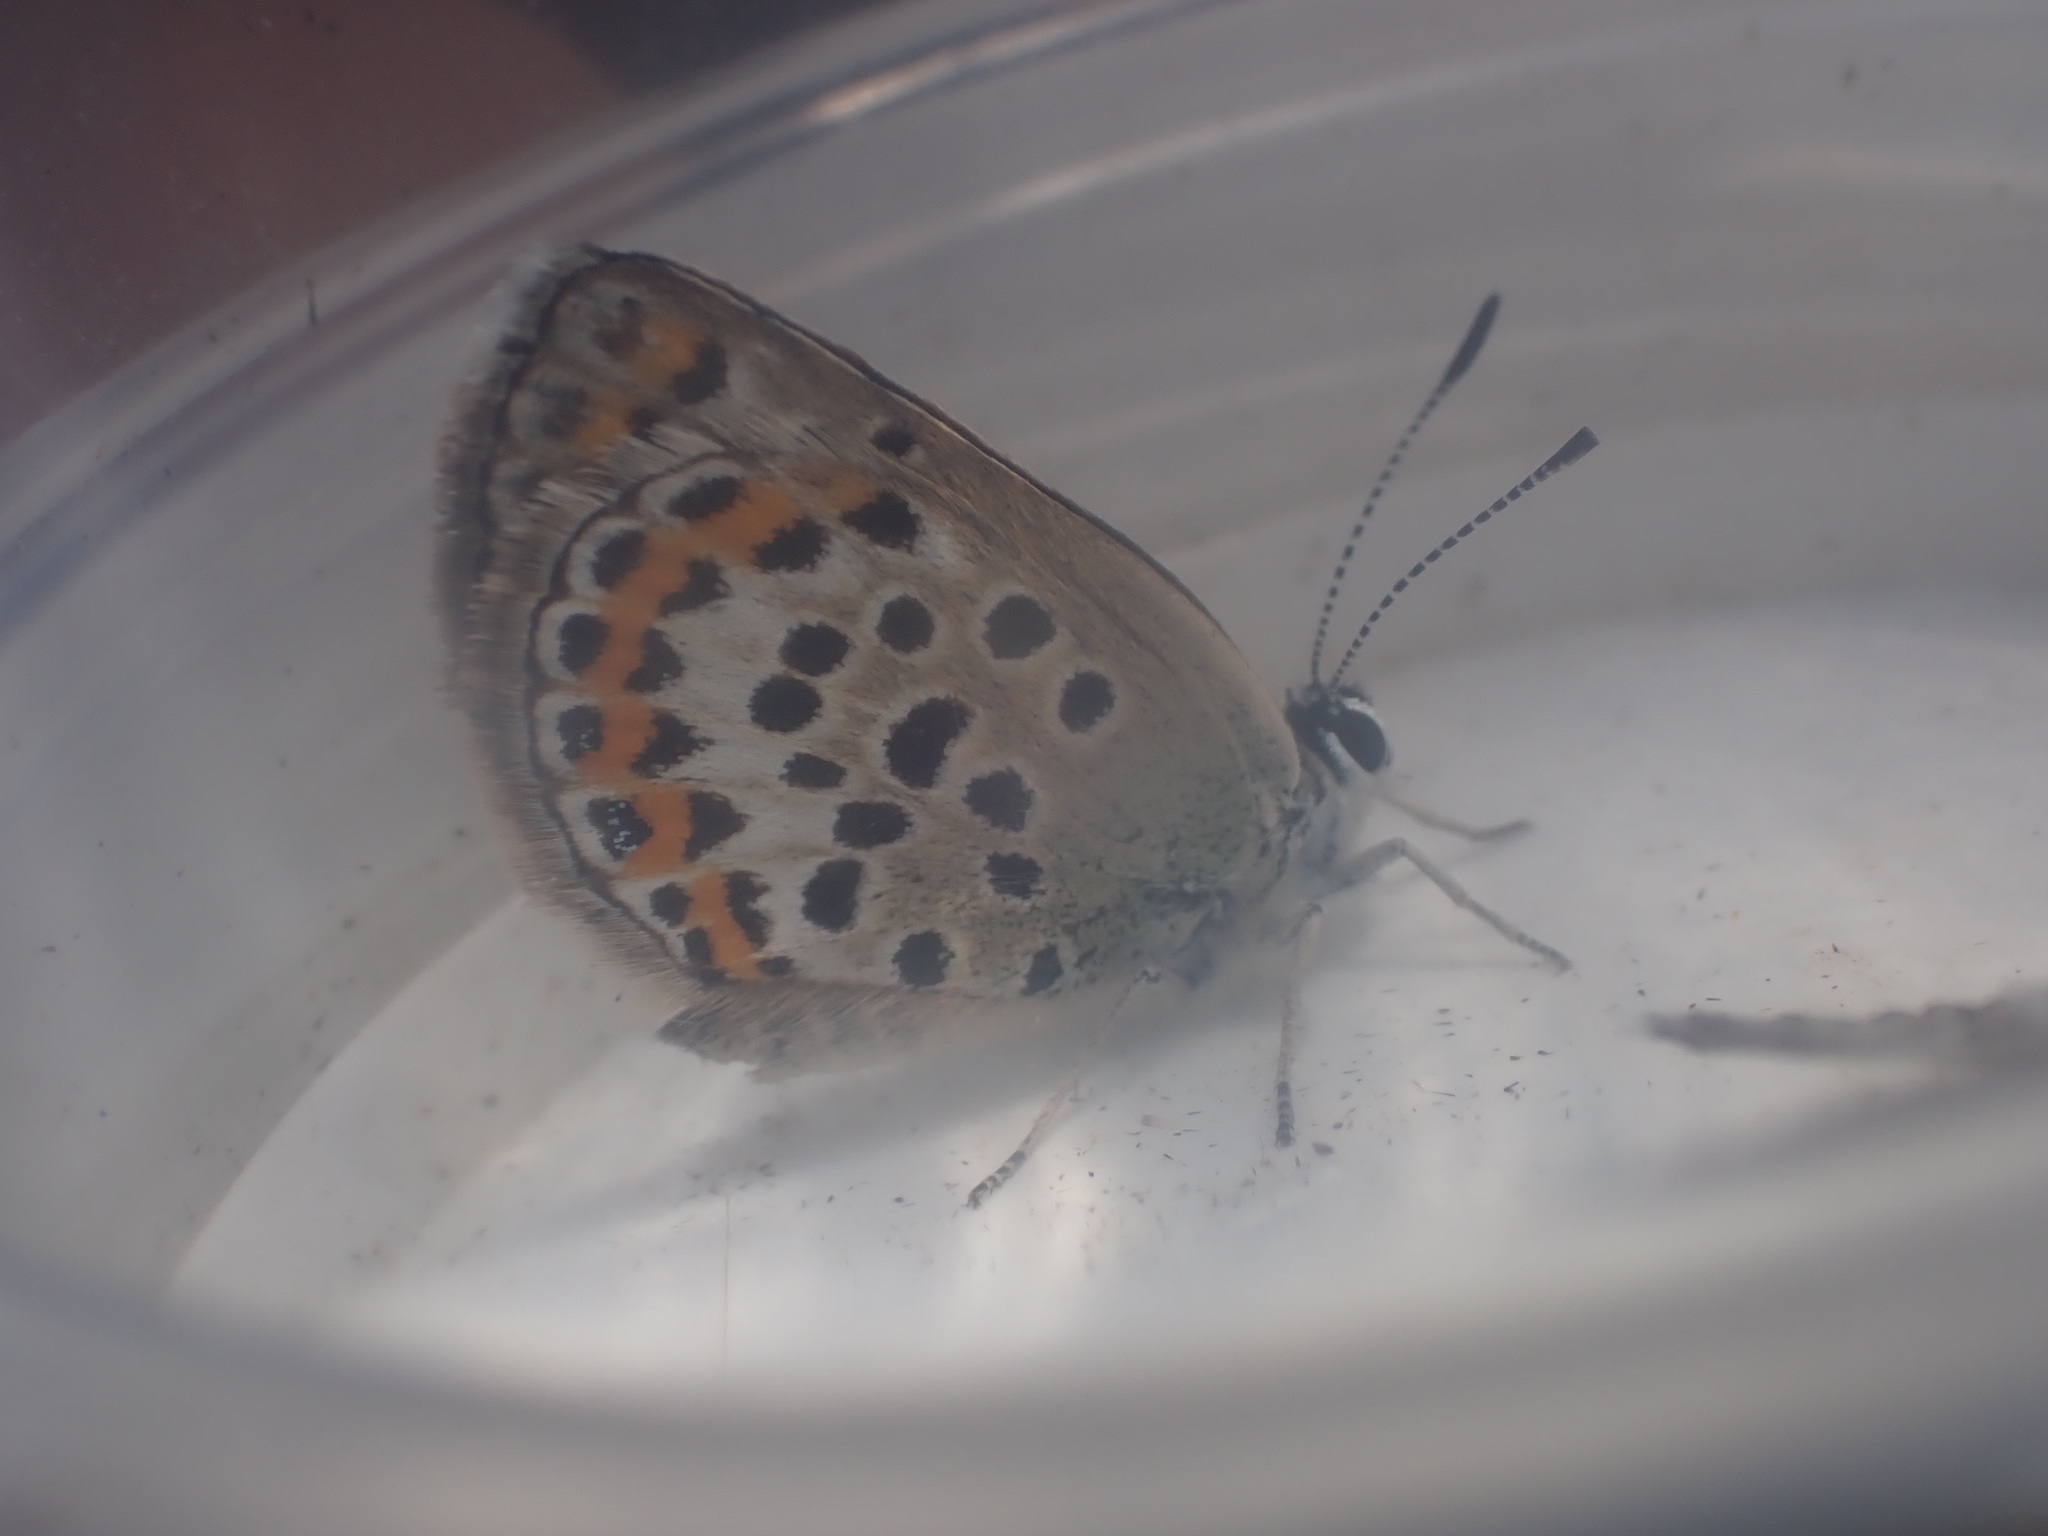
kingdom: Animalia
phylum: Arthropoda
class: Insecta
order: Lepidoptera
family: Lycaenidae
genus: Plebejus
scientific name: Plebejus argus
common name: Silver-studded blue
